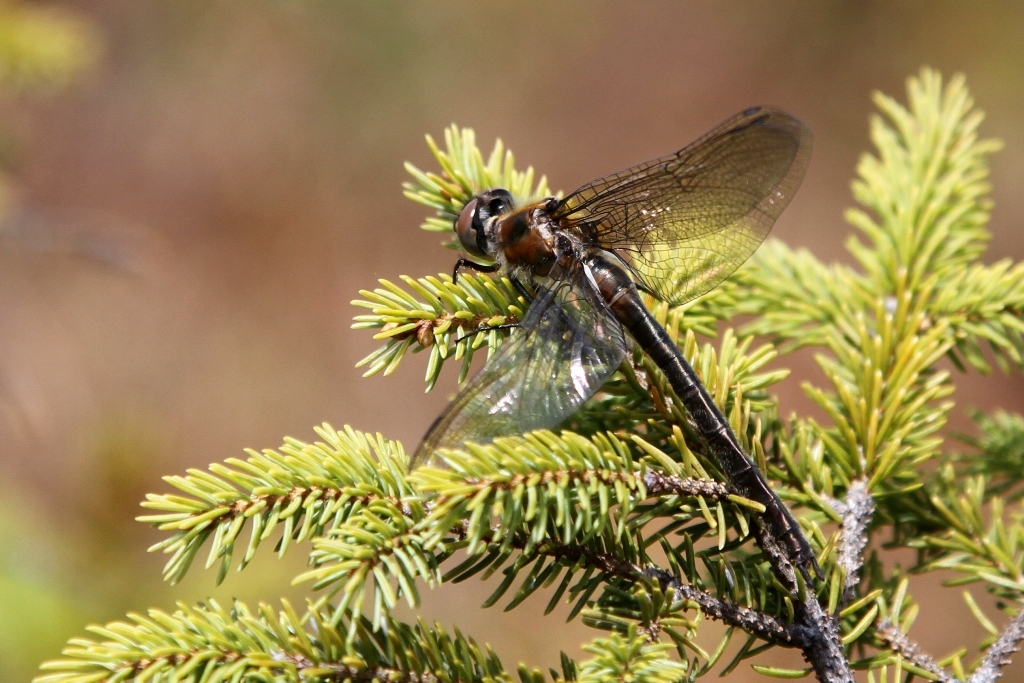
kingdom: Animalia
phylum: Arthropoda
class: Insecta
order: Odonata
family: Corduliidae
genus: Cordulia
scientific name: Cordulia shurtleffii
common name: American emerald
